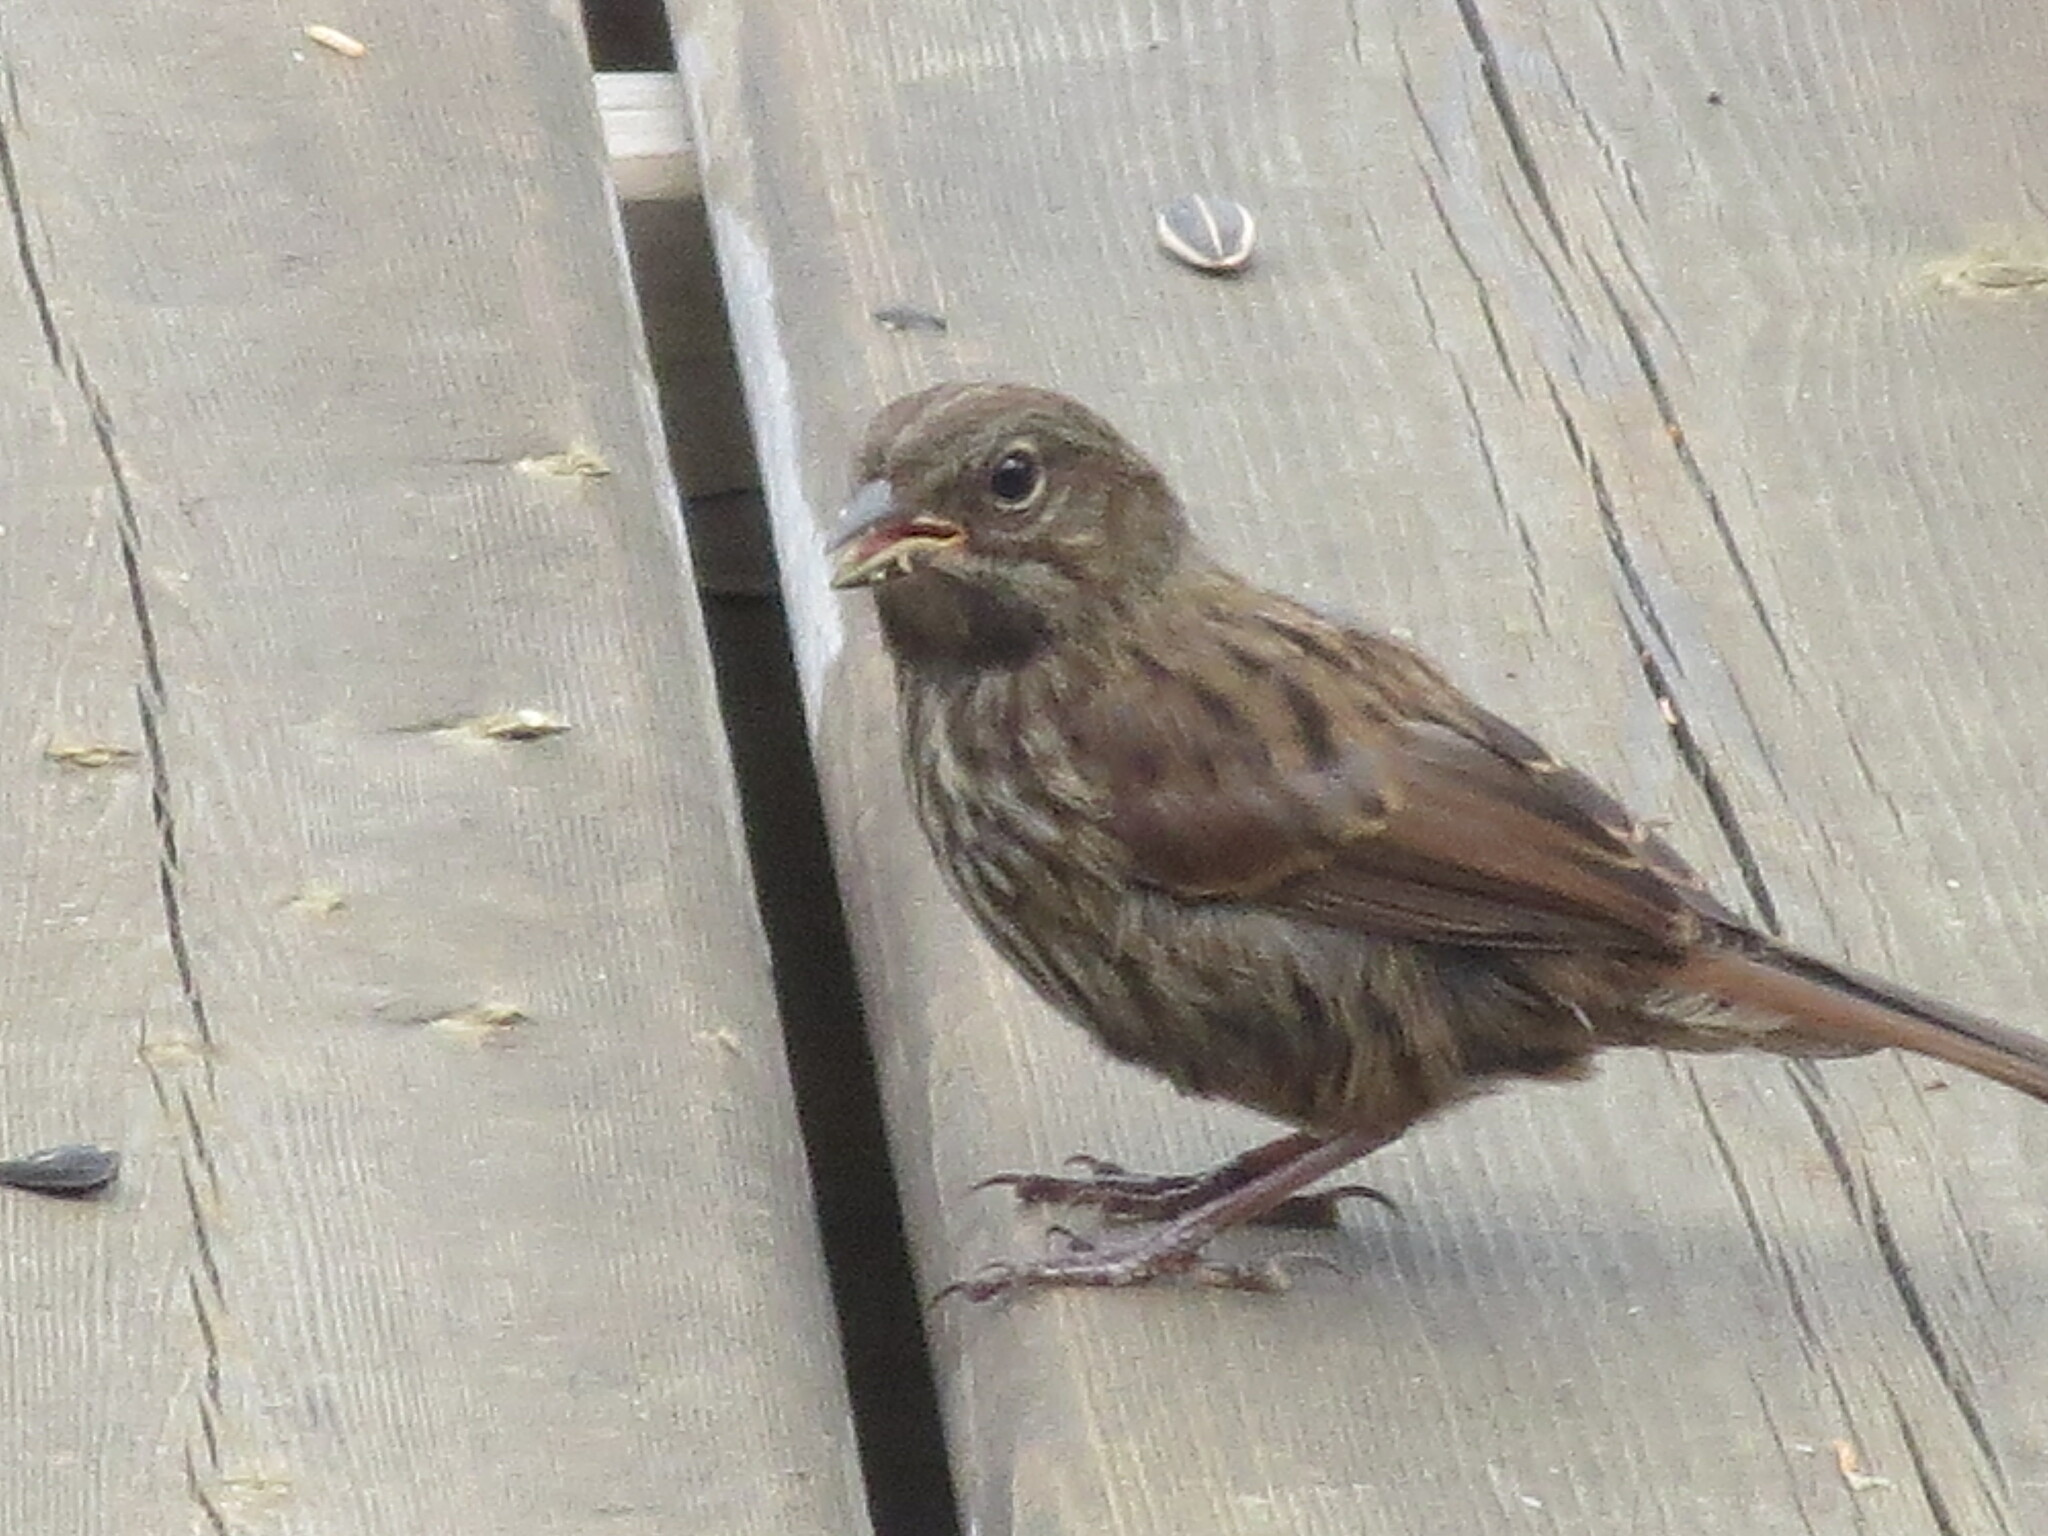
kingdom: Animalia
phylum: Chordata
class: Aves
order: Passeriformes
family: Passerellidae
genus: Melospiza
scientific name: Melospiza melodia
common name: Song sparrow
